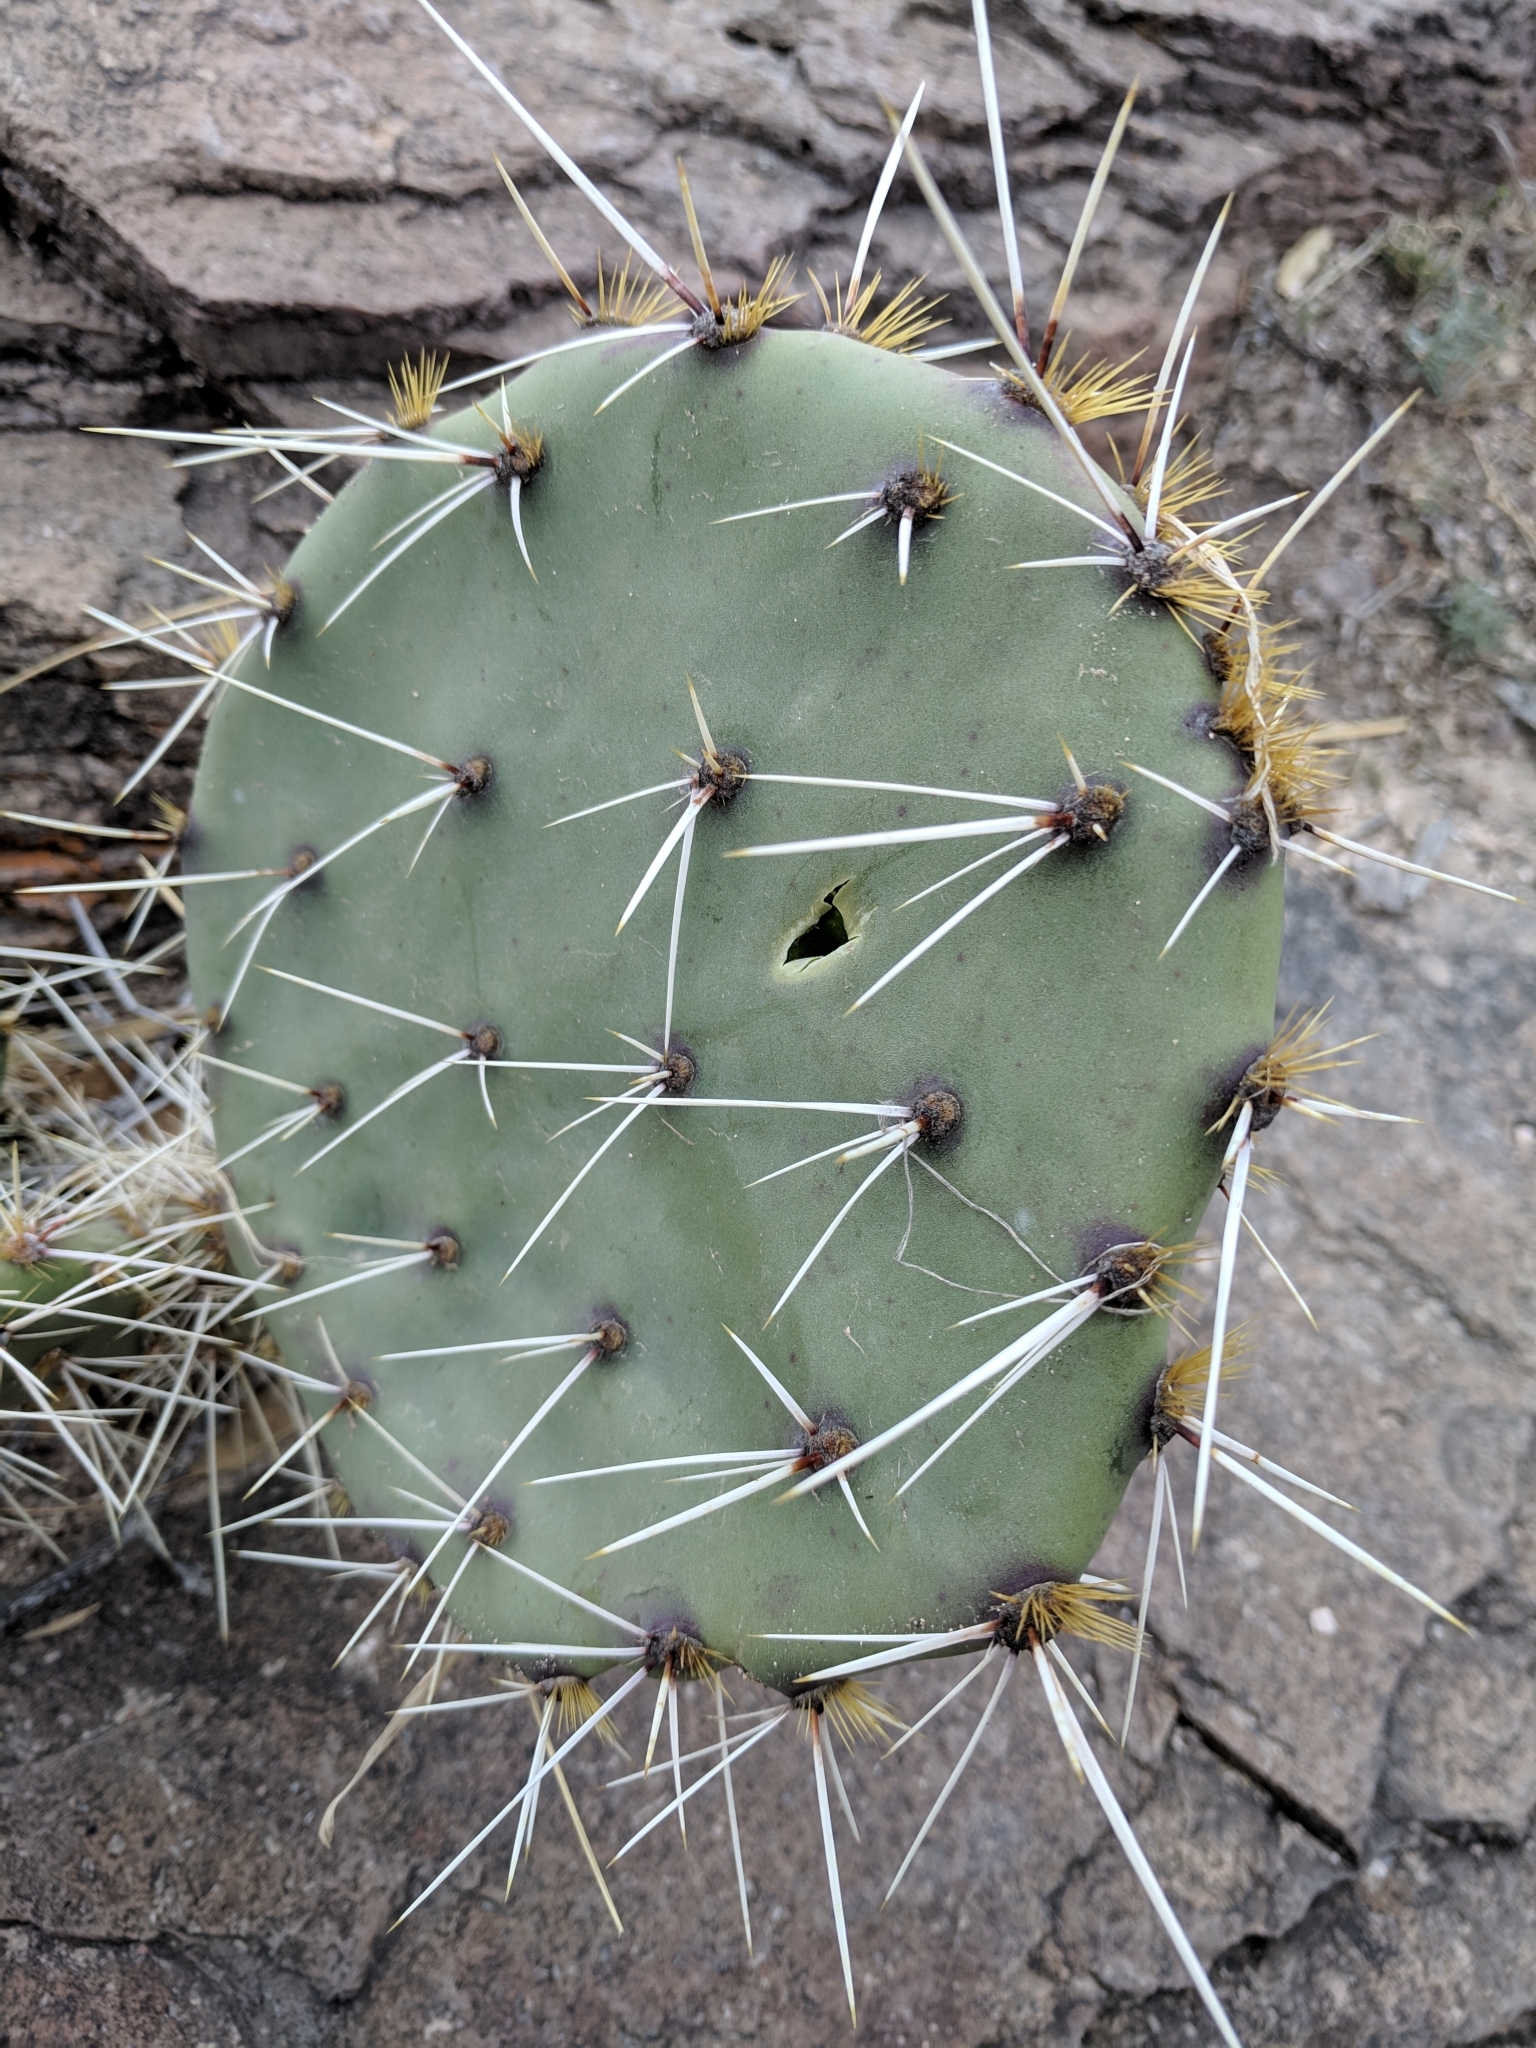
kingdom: Plantae
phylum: Tracheophyta
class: Magnoliopsida
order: Caryophyllales
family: Cactaceae
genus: Opuntia
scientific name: Opuntia engelmannii
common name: Cactus-apple
